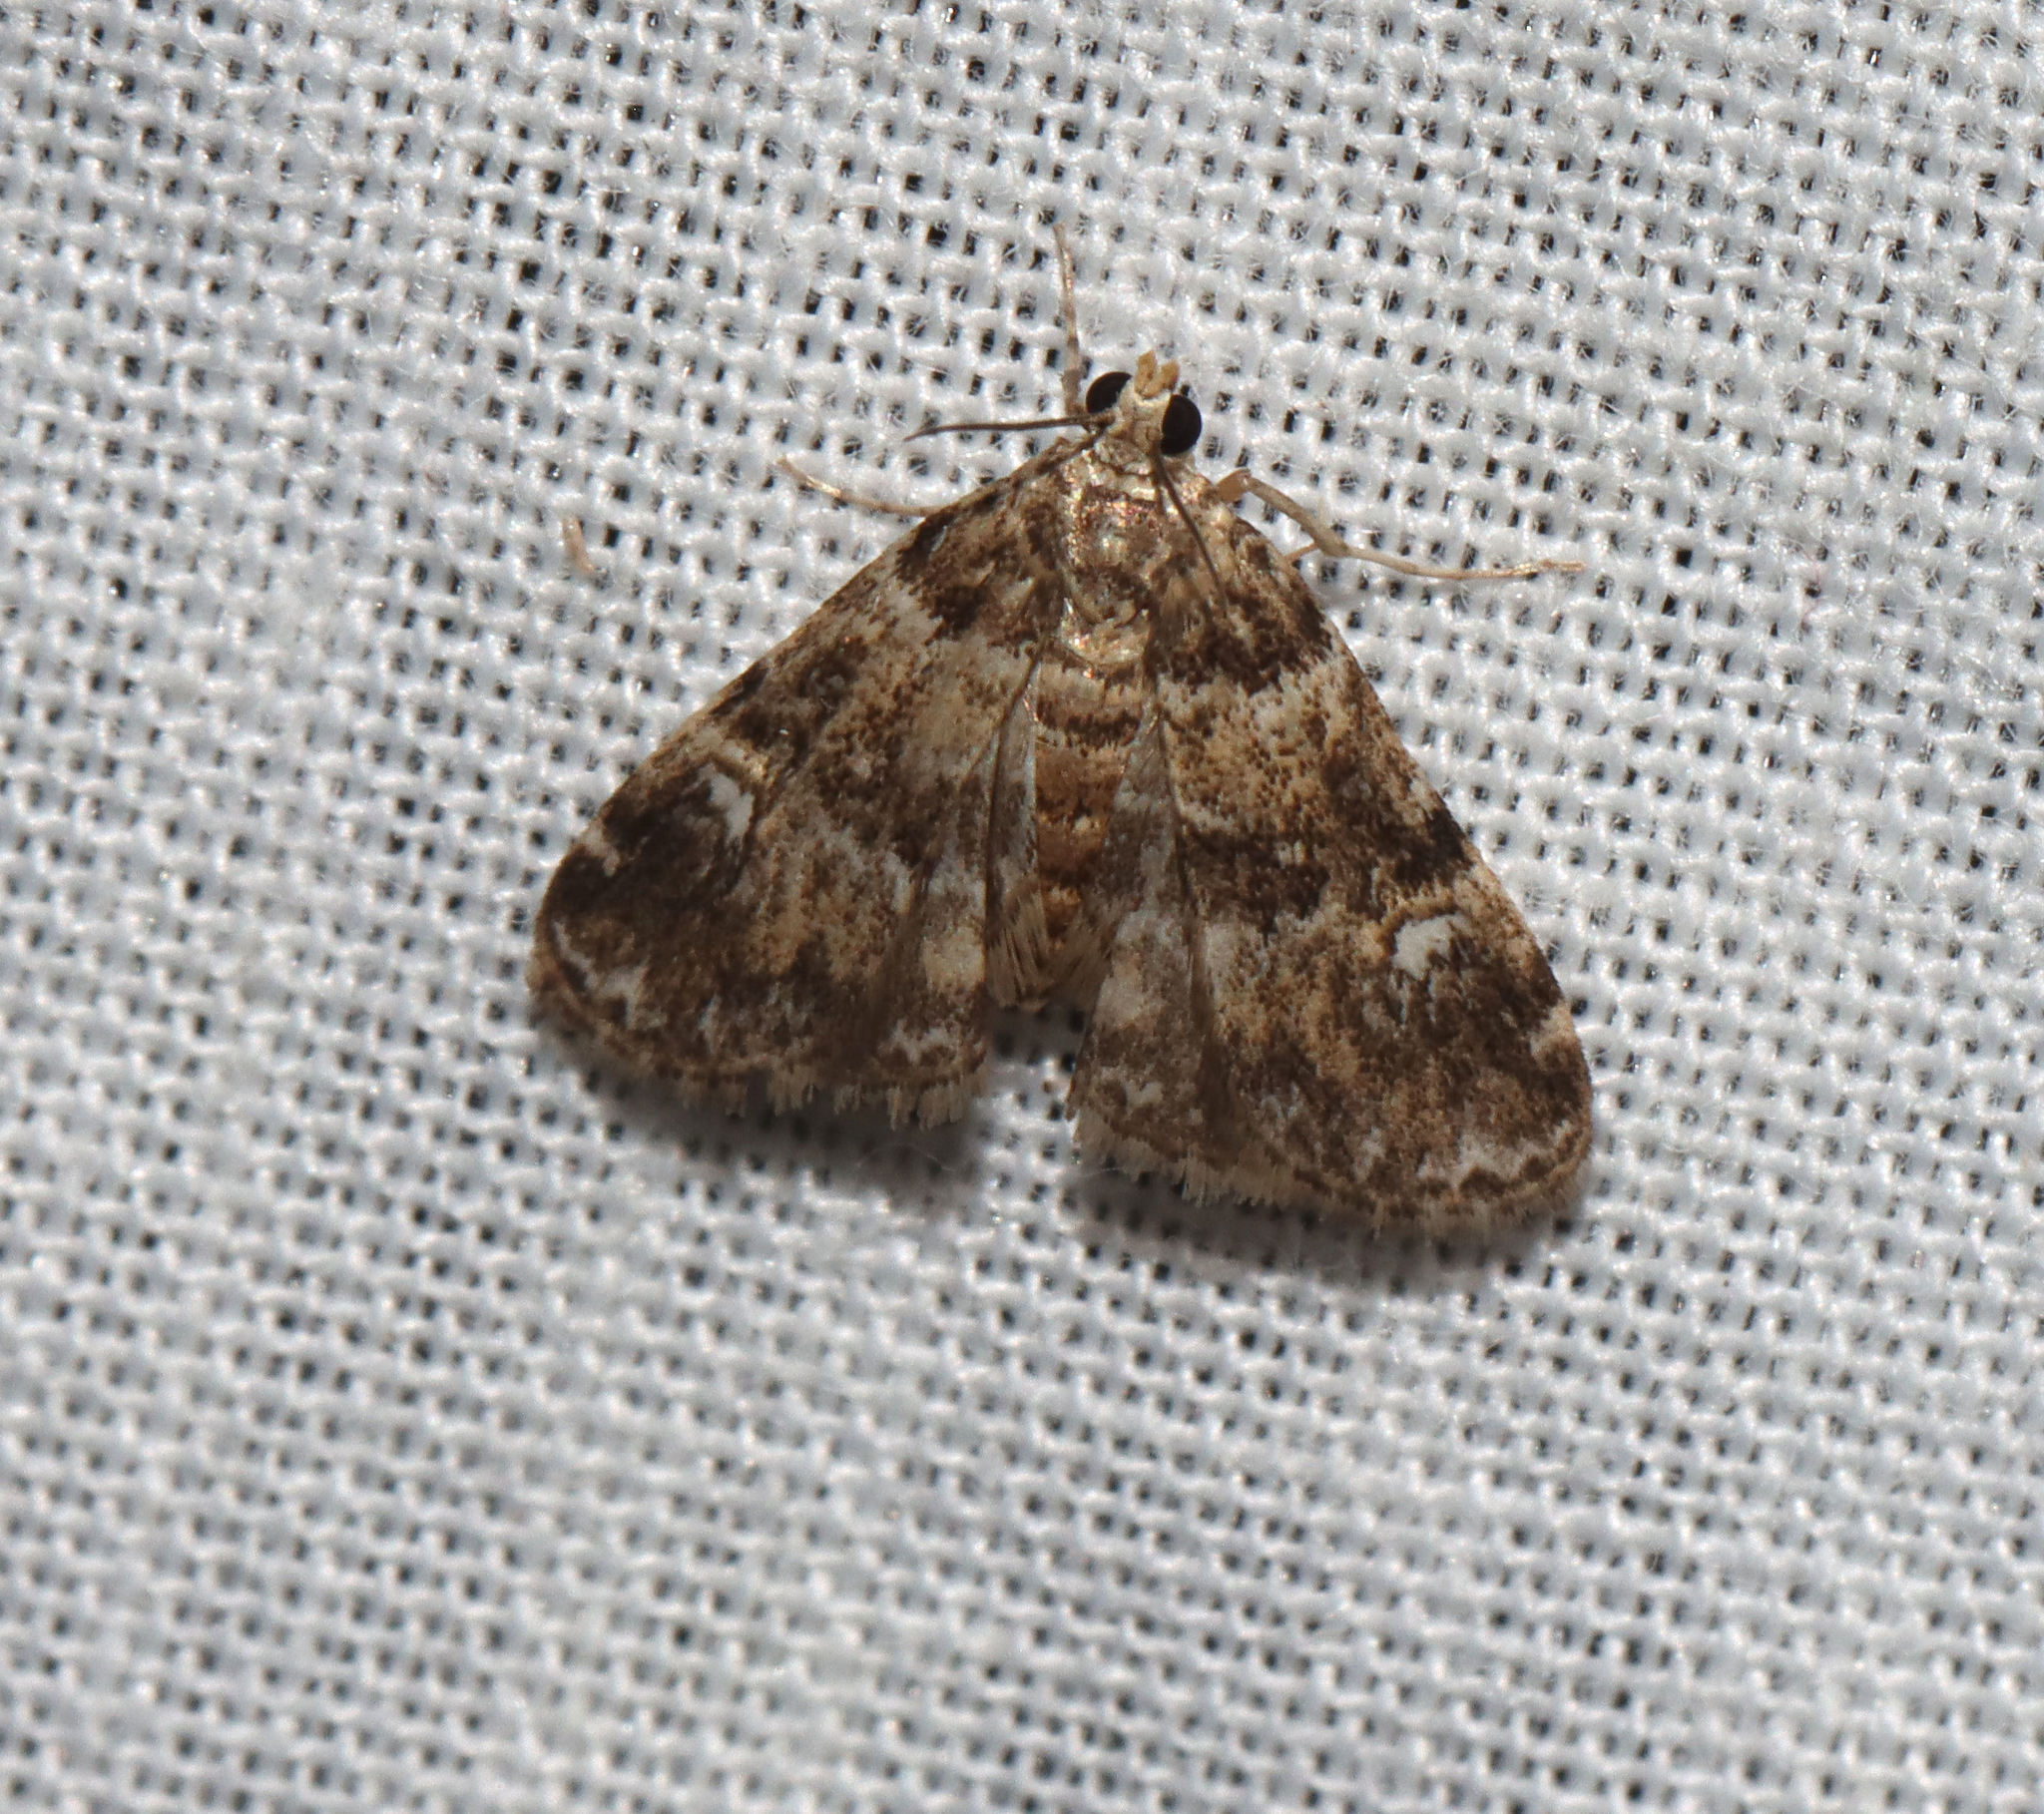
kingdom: Animalia
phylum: Arthropoda
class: Insecta
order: Lepidoptera
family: Crambidae
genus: Elophila
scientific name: Elophila obliteralis
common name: Waterlily leafcutter moth
